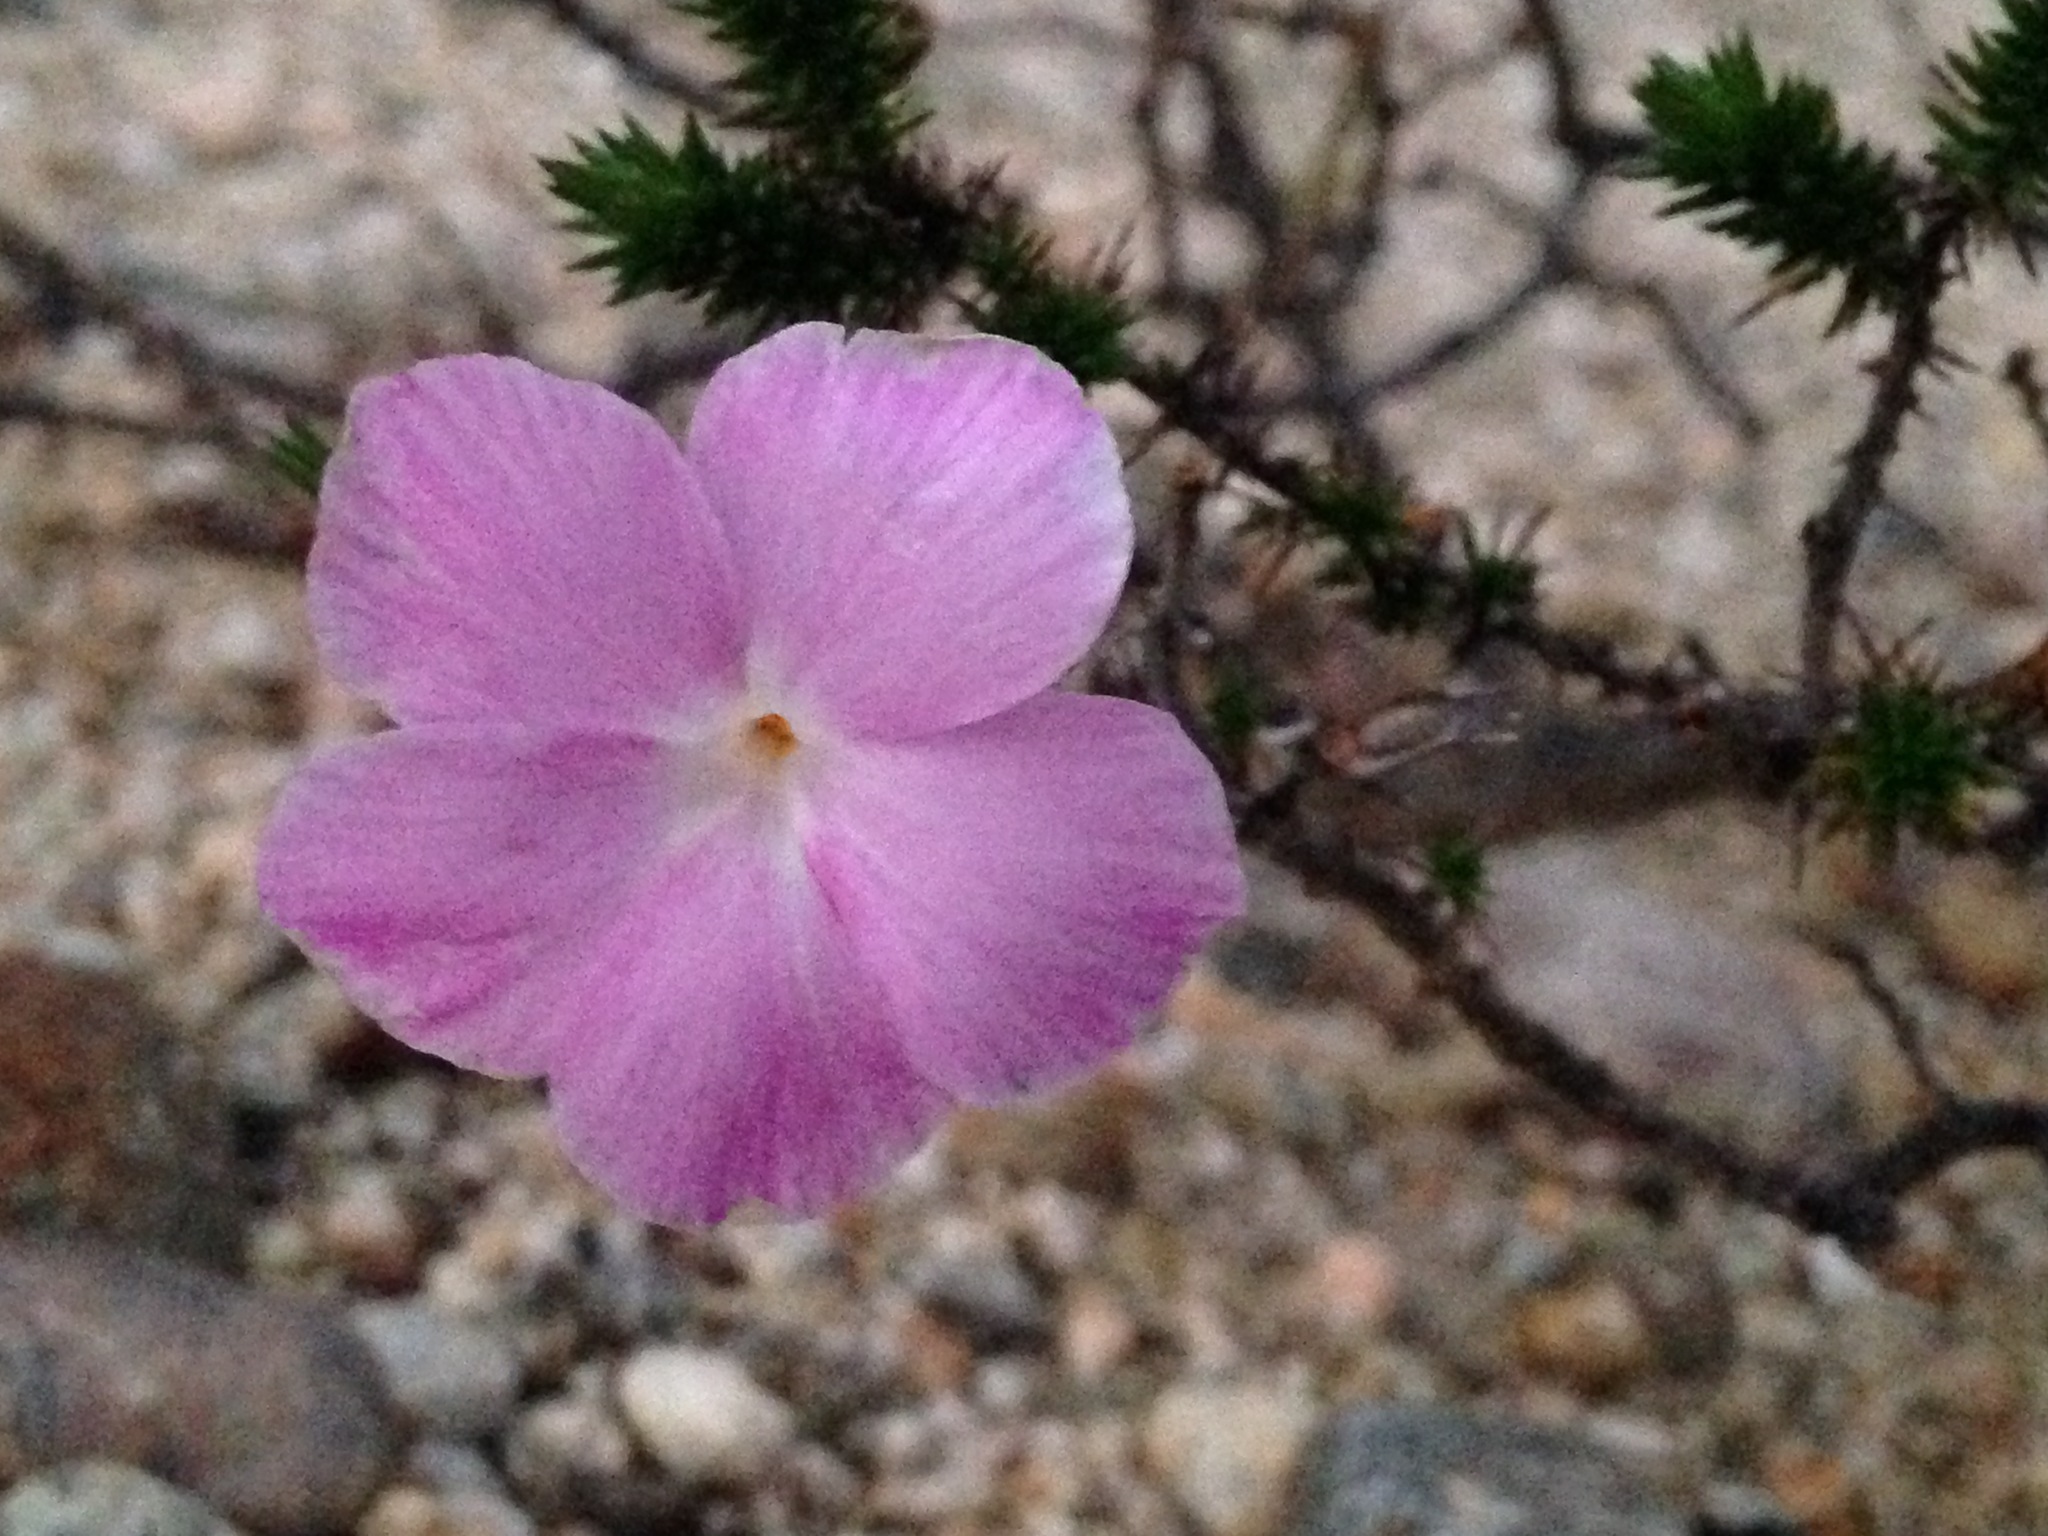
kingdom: Plantae
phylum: Tracheophyta
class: Magnoliopsida
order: Ericales
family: Polemoniaceae
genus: Linanthus
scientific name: Linanthus californicus
